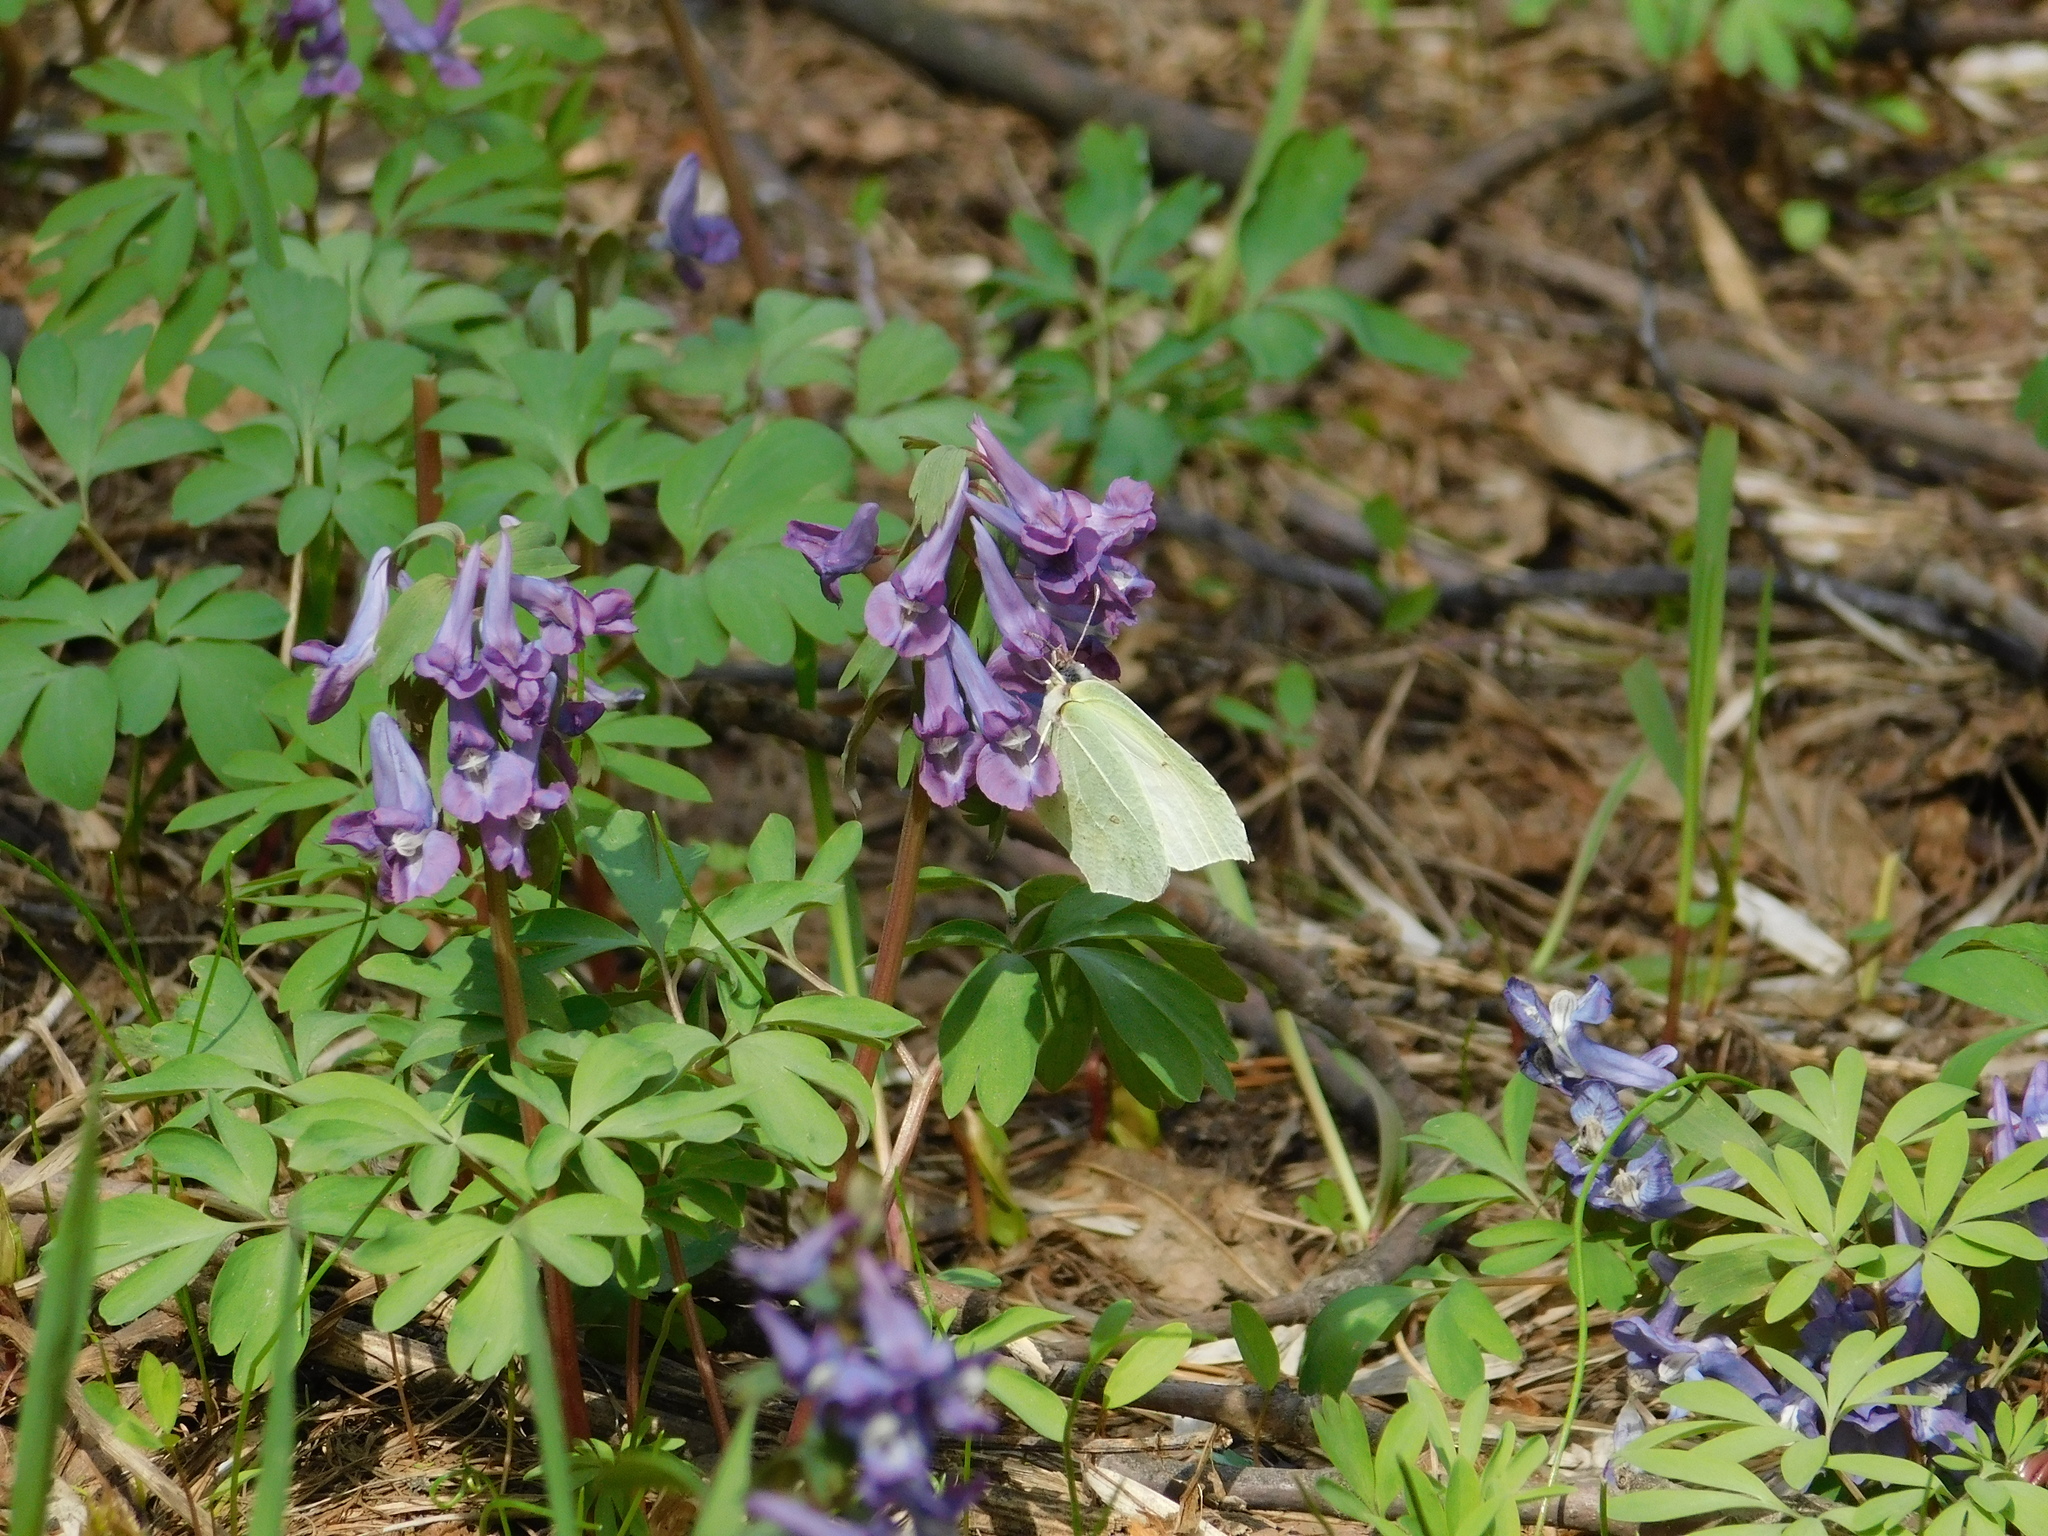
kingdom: Animalia
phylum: Arthropoda
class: Insecta
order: Lepidoptera
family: Pieridae
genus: Gonepteryx
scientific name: Gonepteryx rhamni
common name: Brimstone
